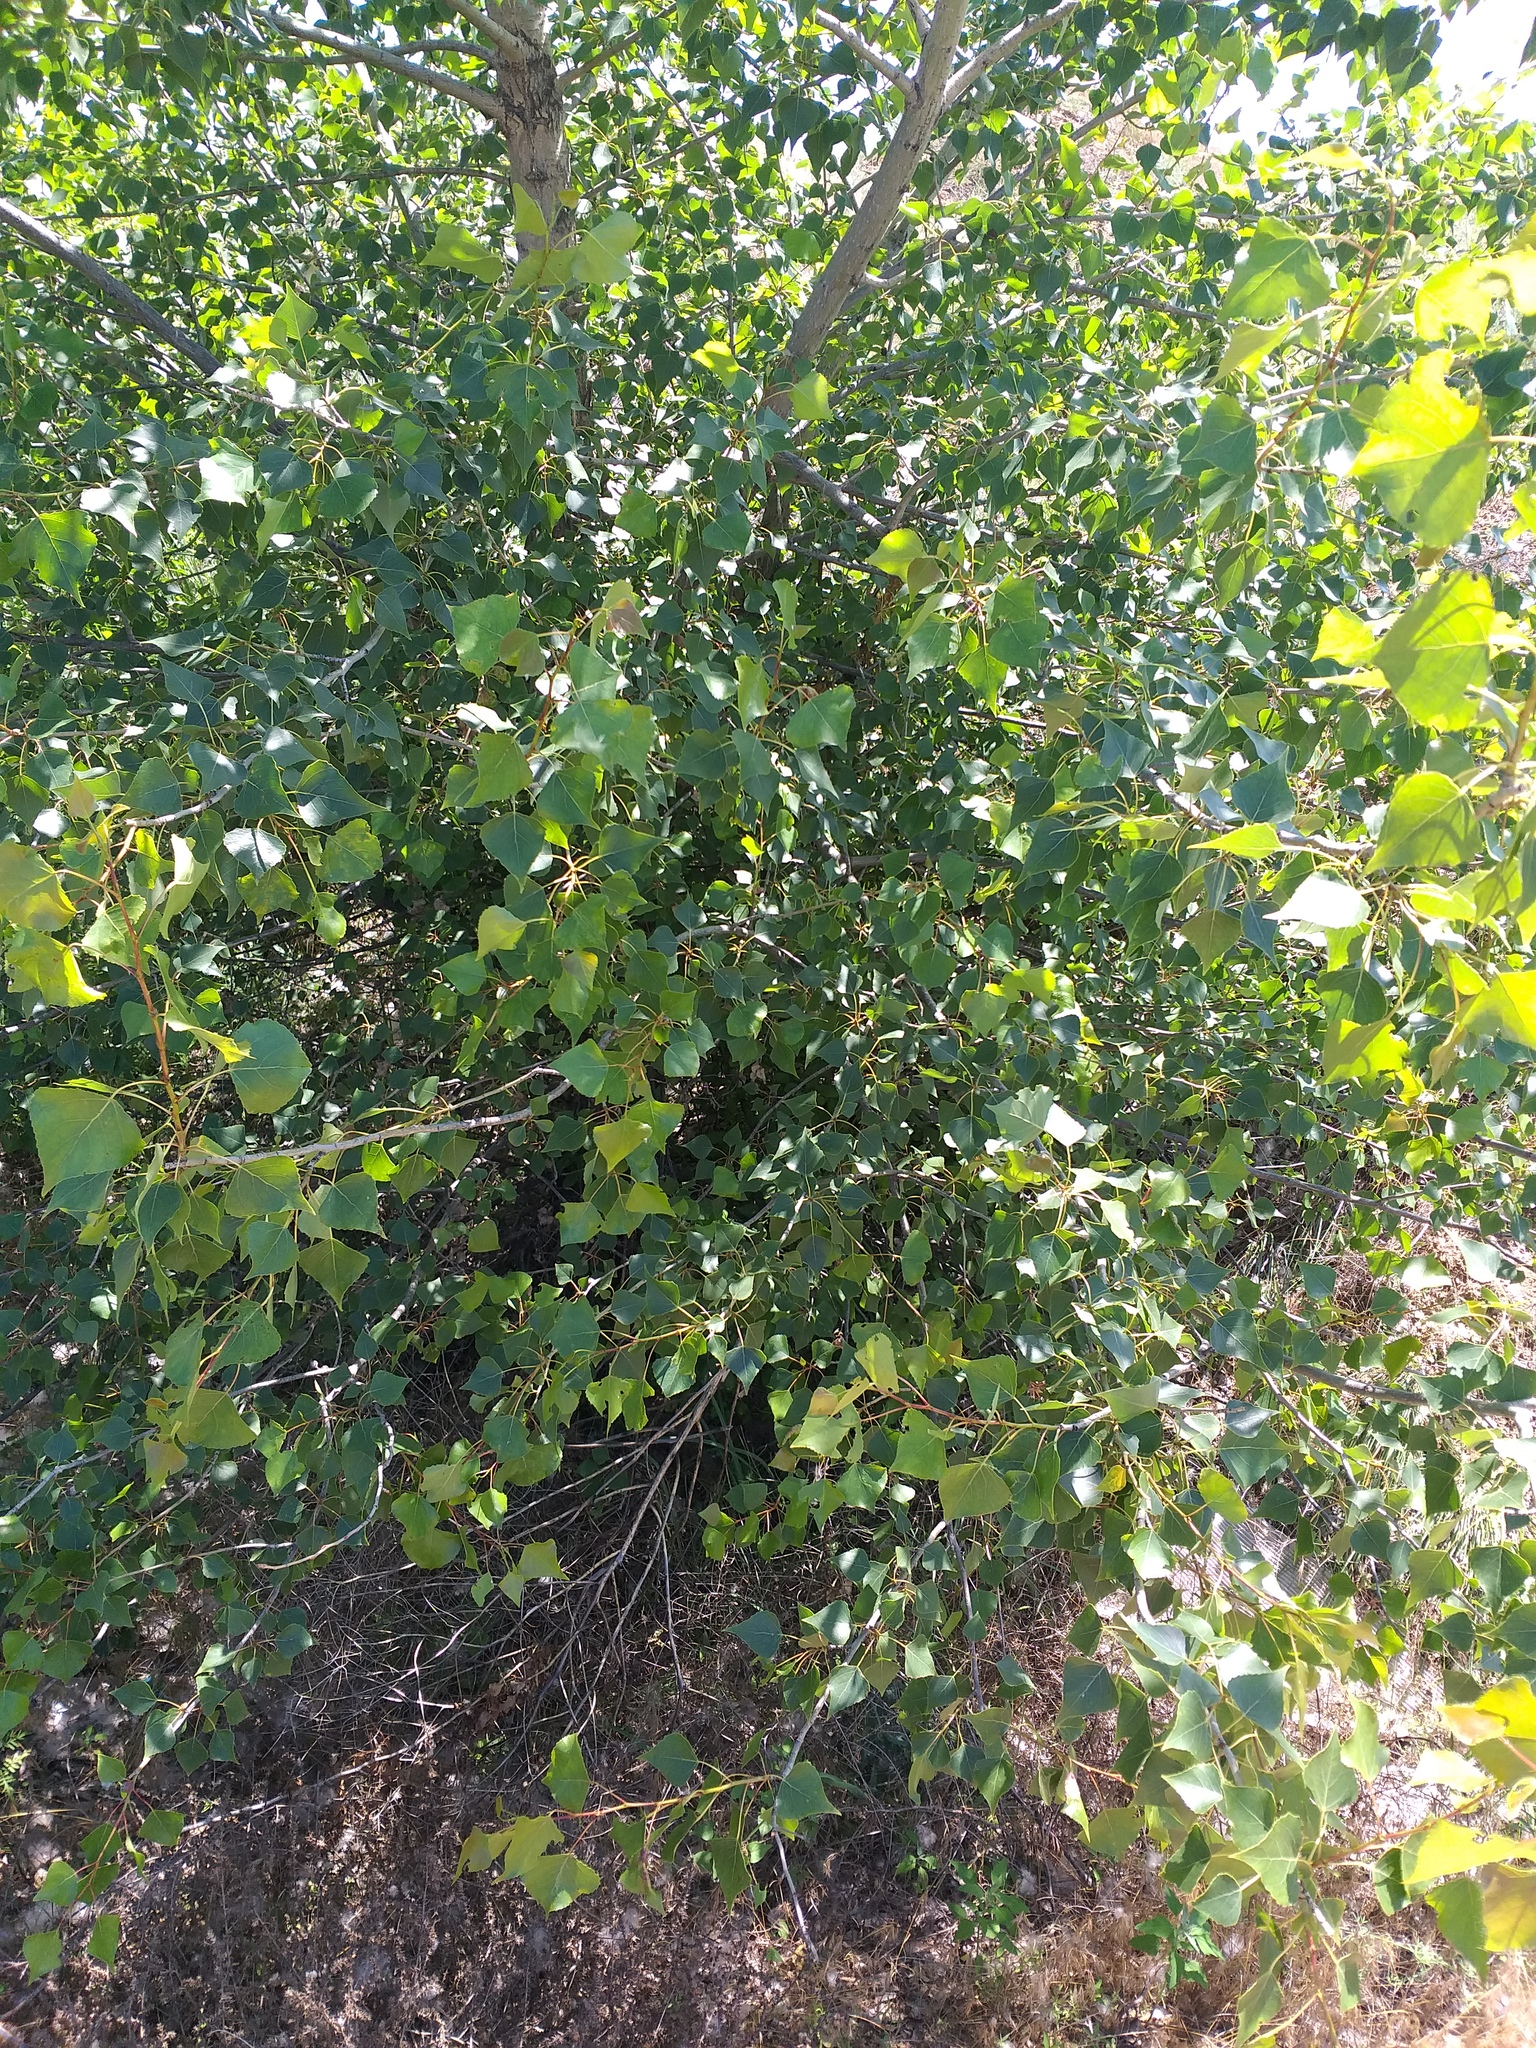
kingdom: Plantae
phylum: Tracheophyta
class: Magnoliopsida
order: Malpighiales
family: Salicaceae
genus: Populus
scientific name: Populus nigra
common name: Black poplar
